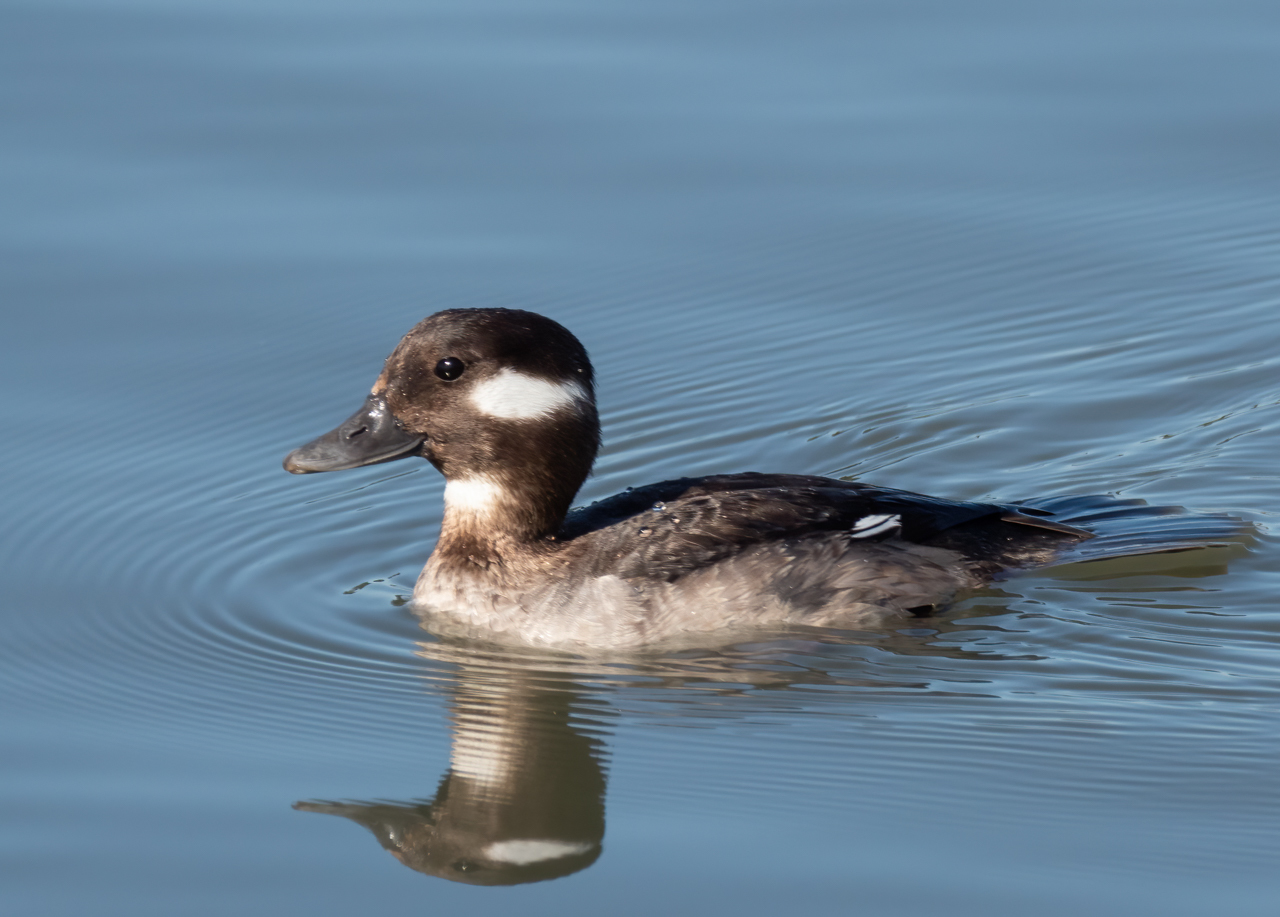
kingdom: Animalia
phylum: Chordata
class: Aves
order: Anseriformes
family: Anatidae
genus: Bucephala
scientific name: Bucephala albeola
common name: Bufflehead
